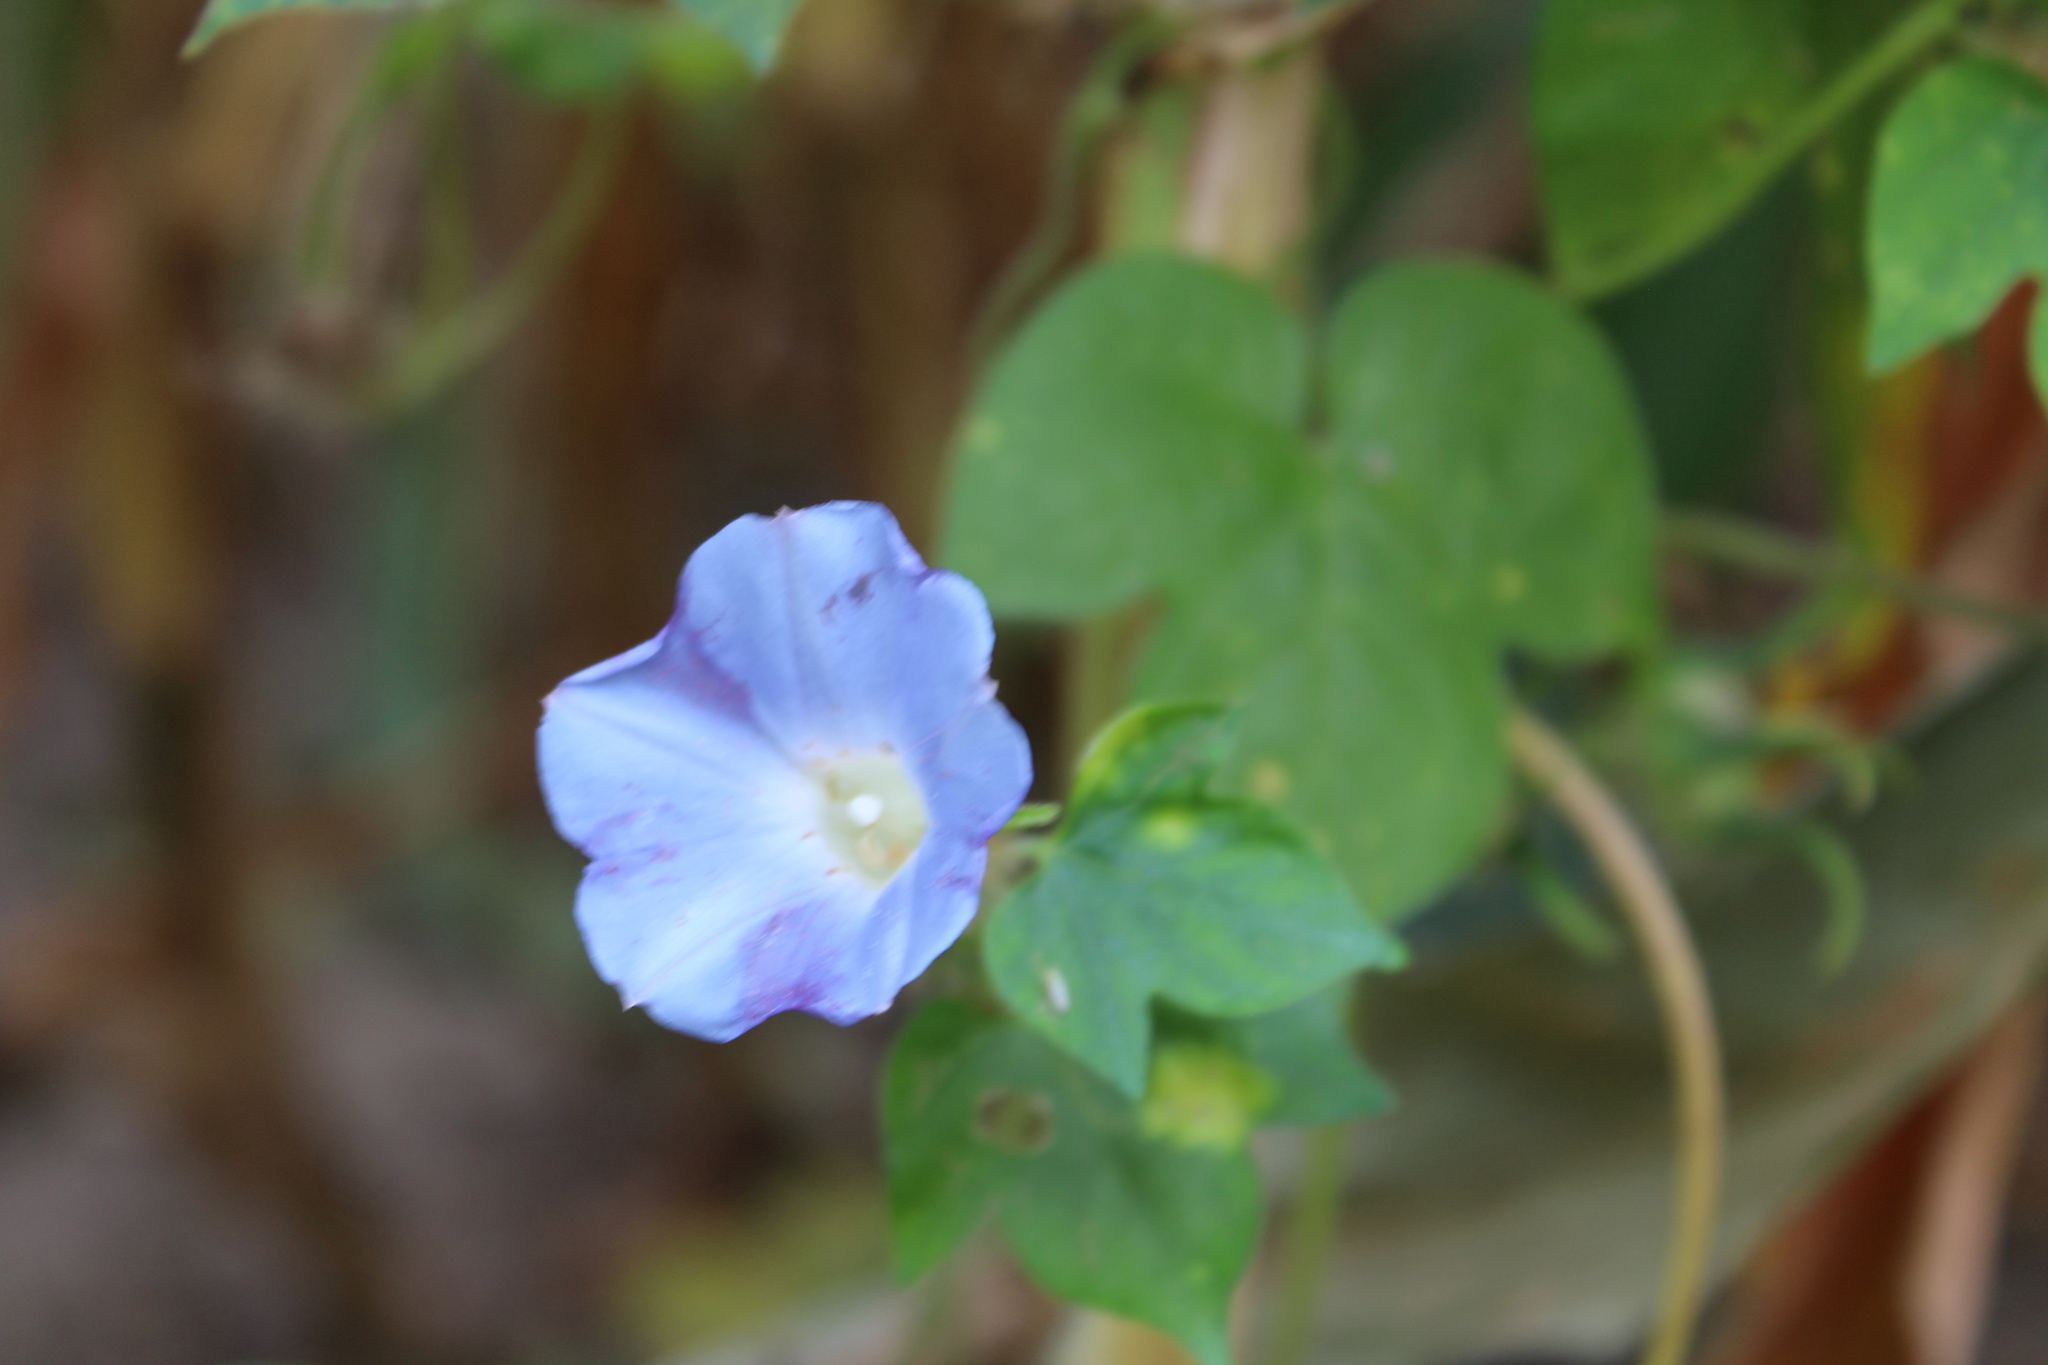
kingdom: Plantae
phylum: Tracheophyta
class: Magnoliopsida
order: Solanales
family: Convolvulaceae
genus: Ipomoea
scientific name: Ipomoea hederacea
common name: Ivy-leaved morning-glory
